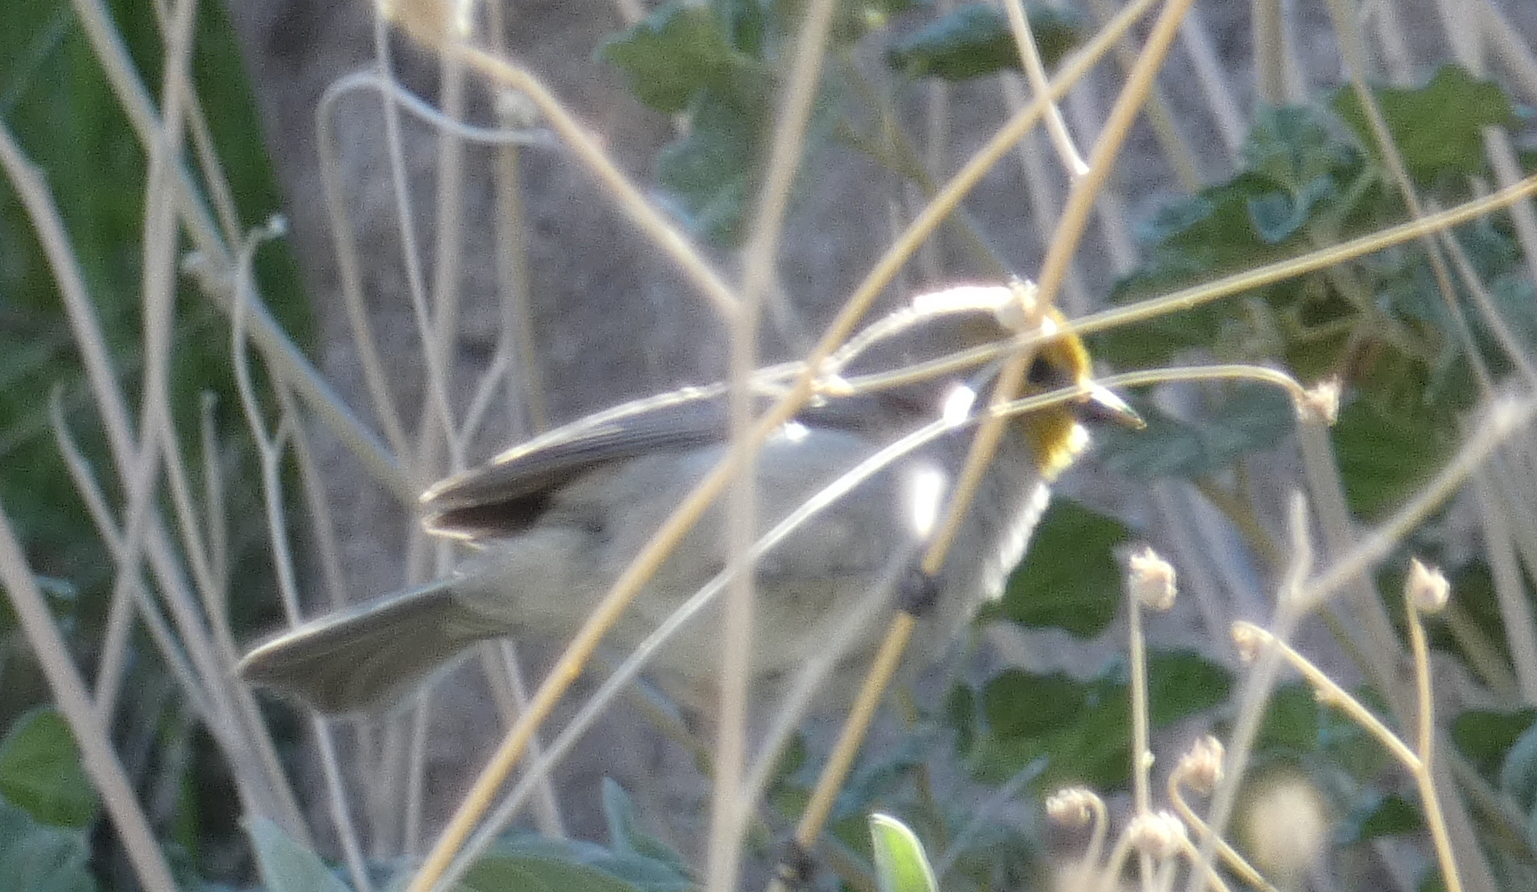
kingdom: Animalia
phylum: Chordata
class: Aves
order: Passeriformes
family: Remizidae
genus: Auriparus
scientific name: Auriparus flaviceps
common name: Verdin
